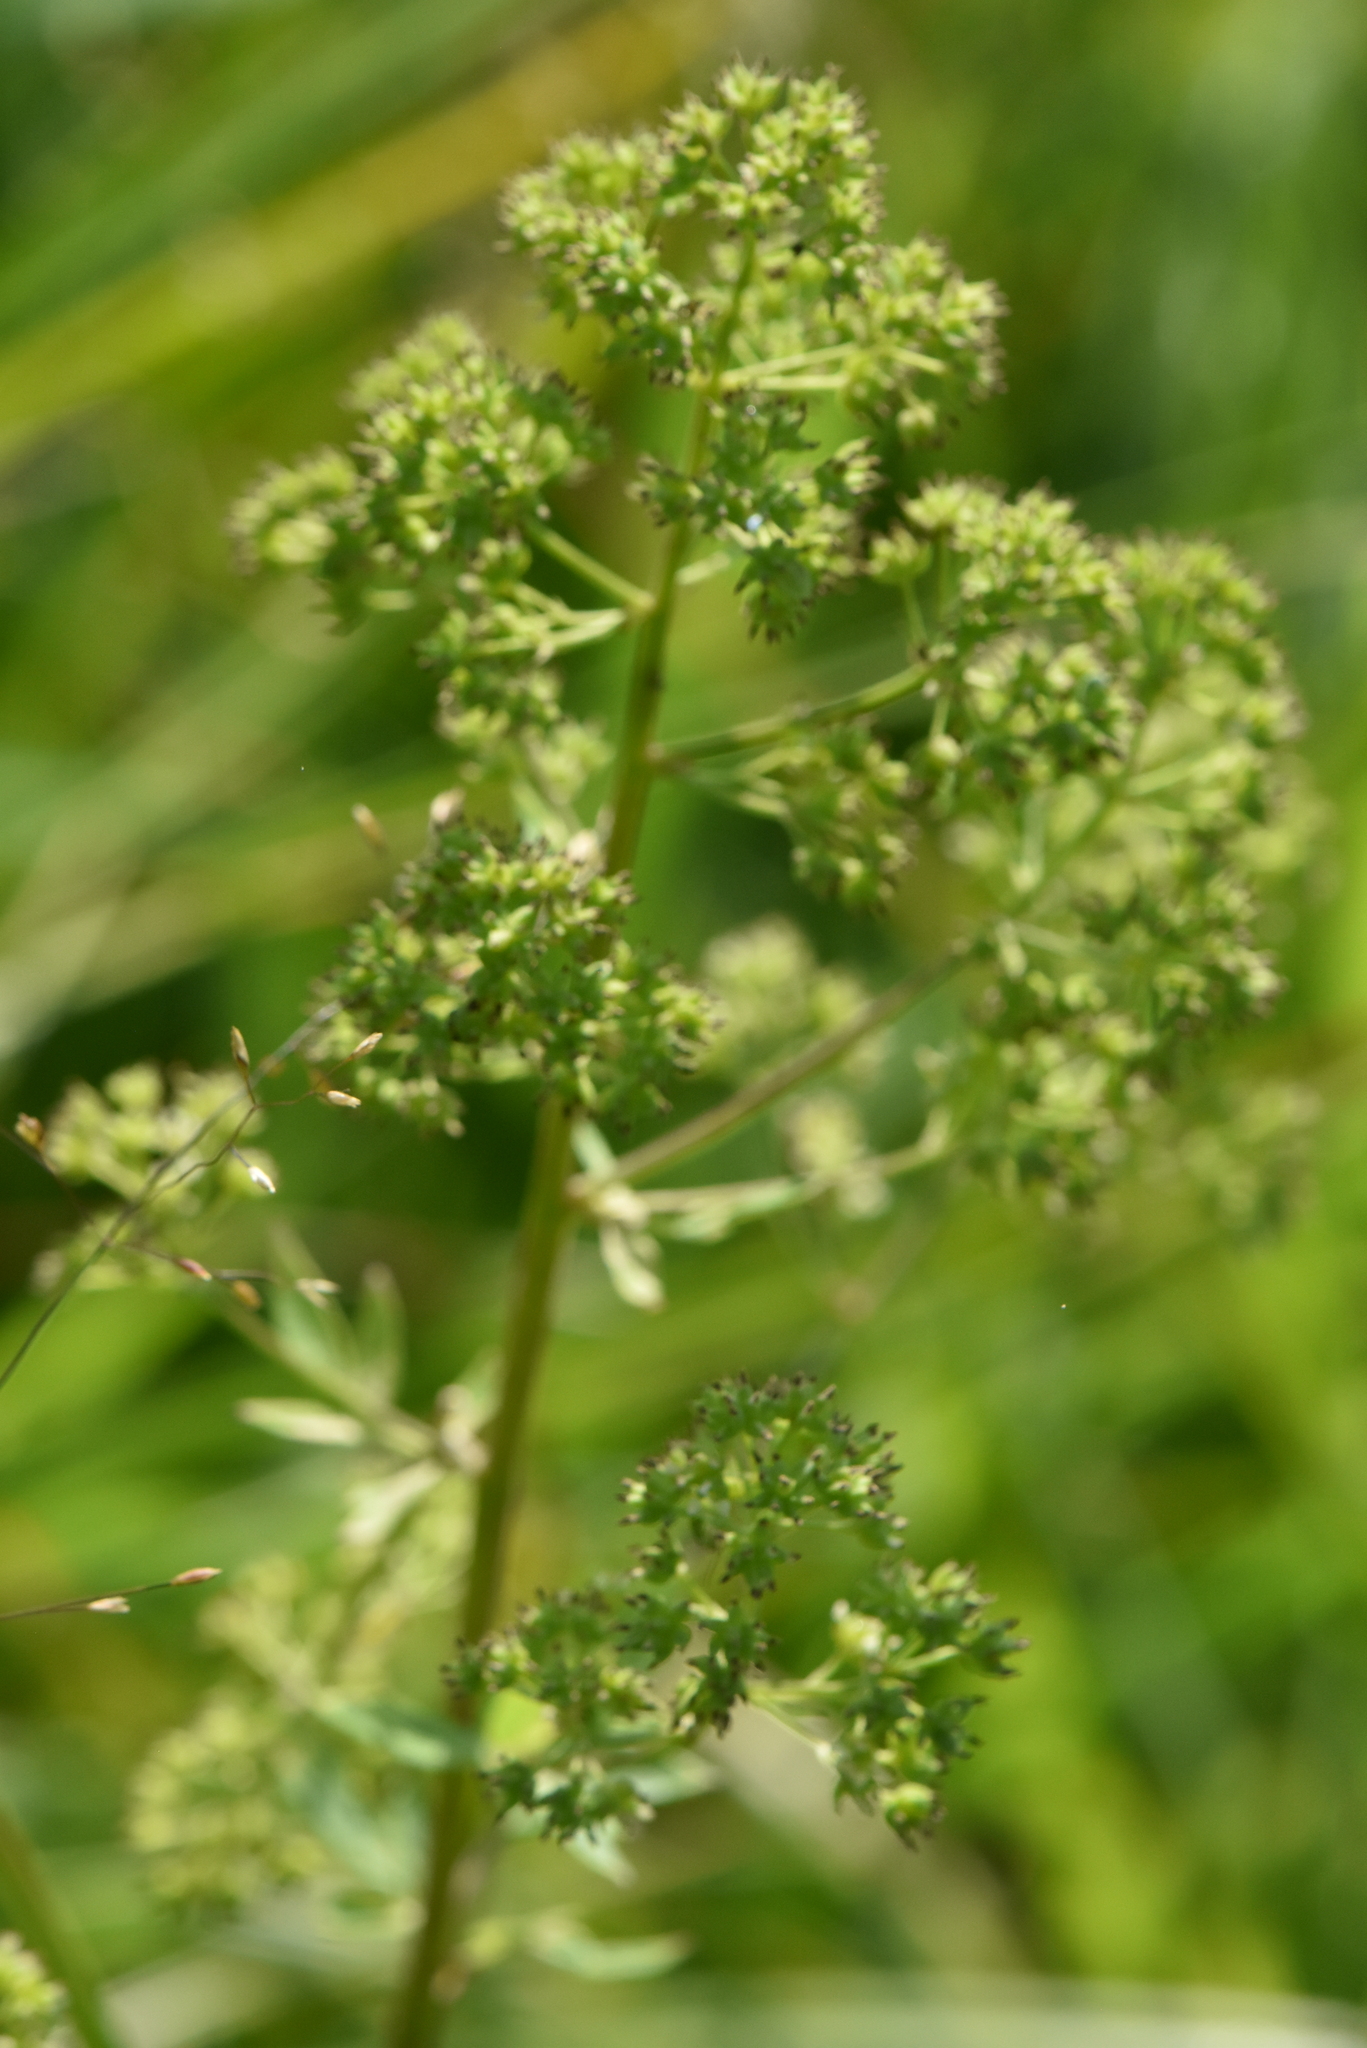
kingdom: Plantae
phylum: Tracheophyta
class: Magnoliopsida
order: Ranunculales
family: Ranunculaceae
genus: Thalictrum
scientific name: Thalictrum simplex
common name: Small meadow-rue
